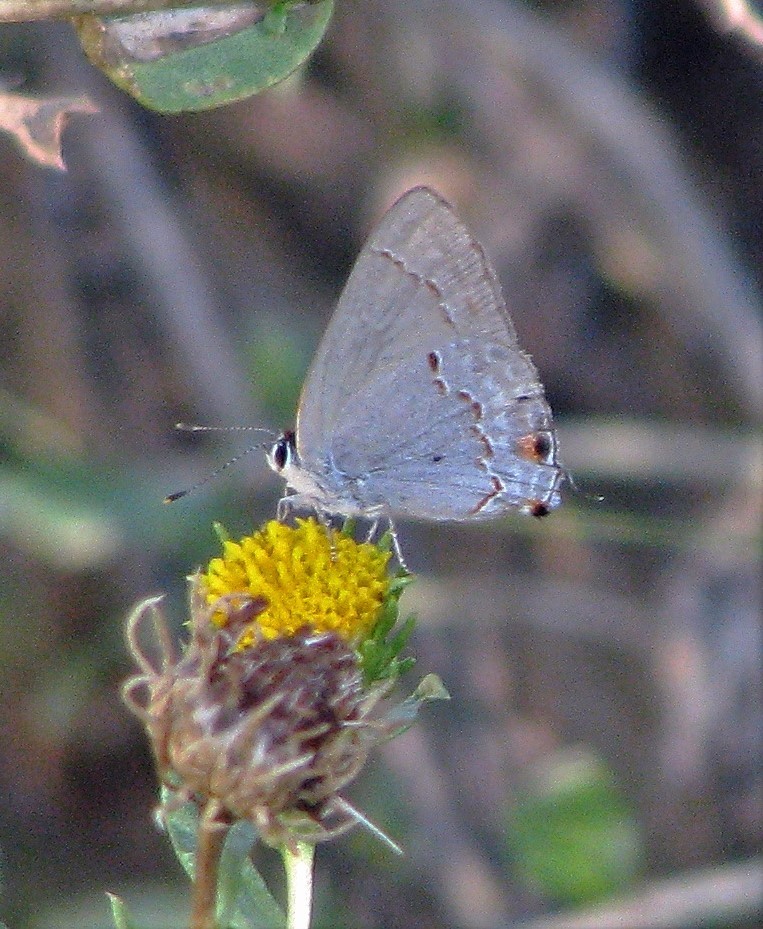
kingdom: Animalia
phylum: Arthropoda
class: Insecta
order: Lepidoptera
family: Lycaenidae
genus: Thecla
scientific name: Thecla rufofusca
